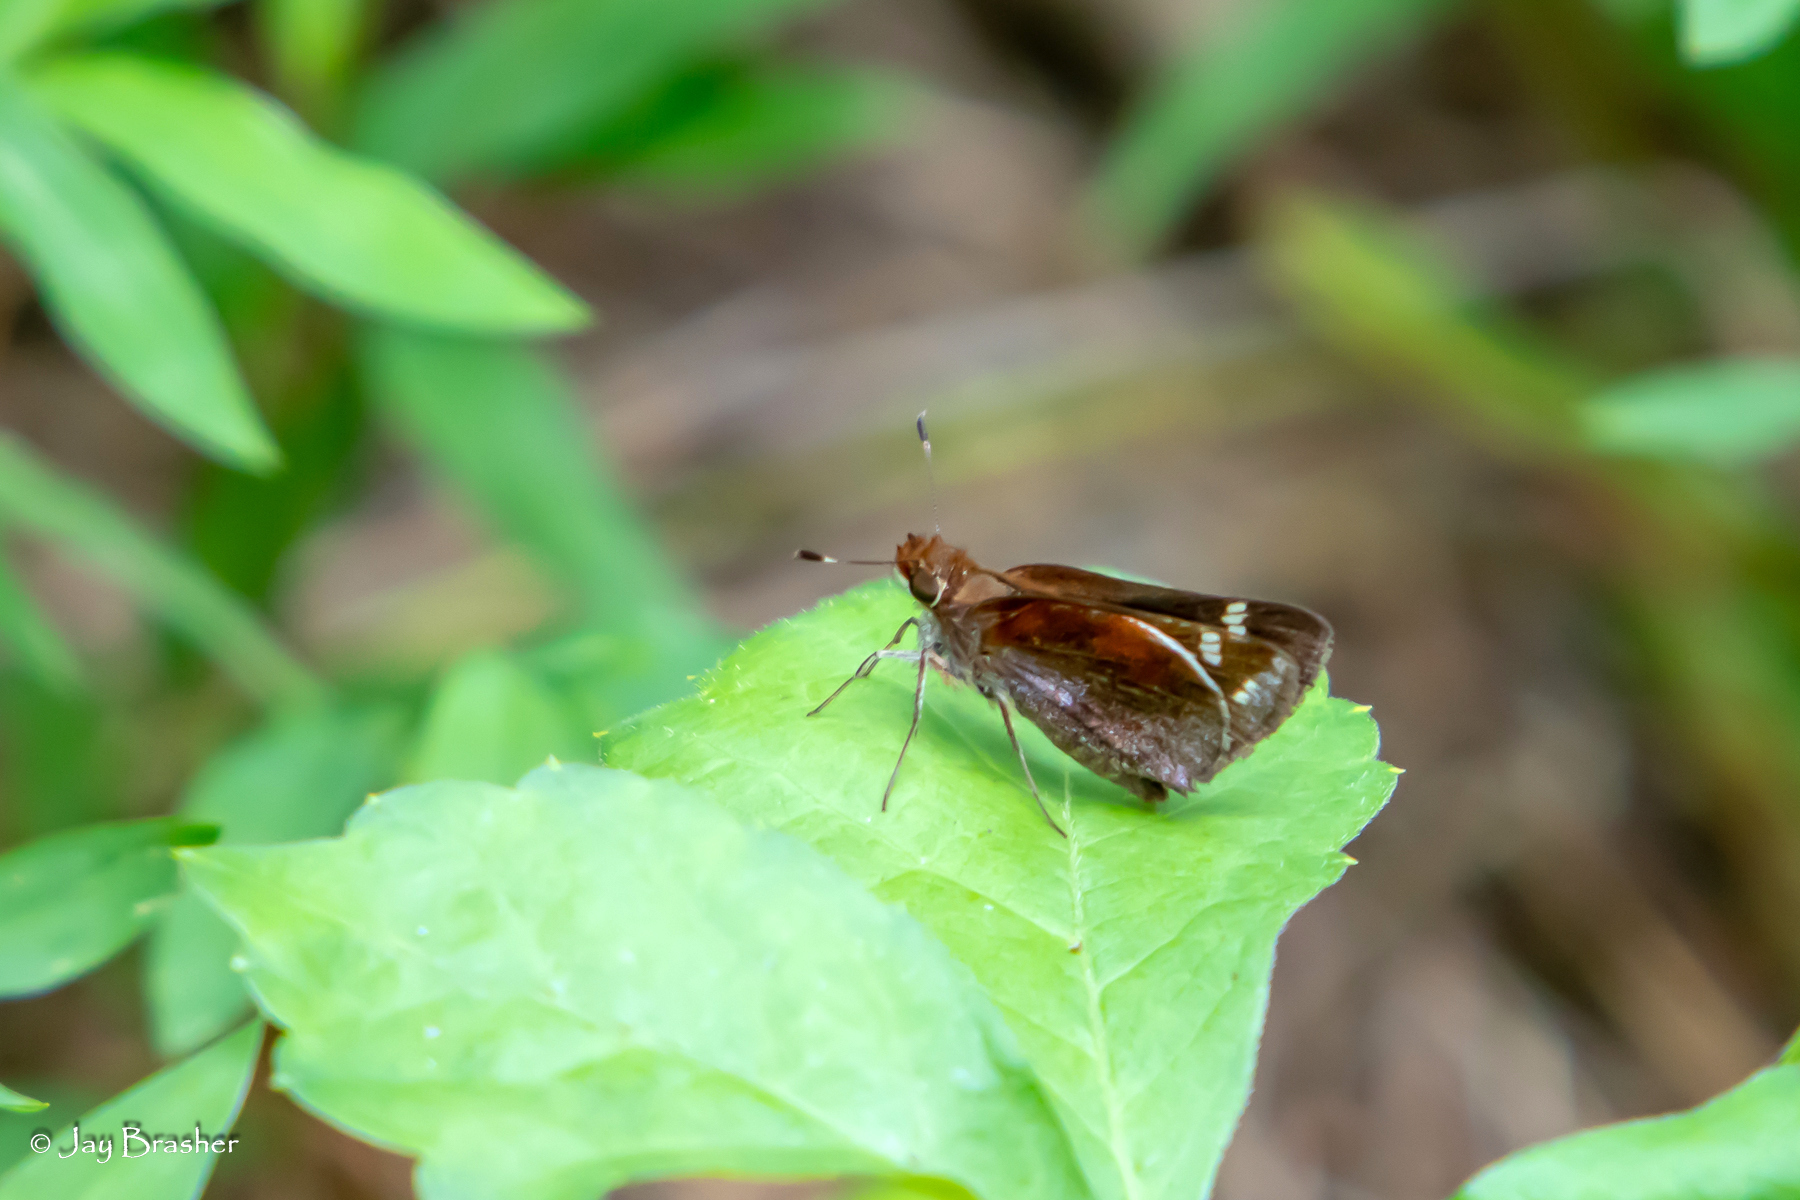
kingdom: Animalia
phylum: Arthropoda
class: Insecta
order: Lepidoptera
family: Hesperiidae
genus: Lon
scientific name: Lon zabulon
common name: Zabulon skipper
